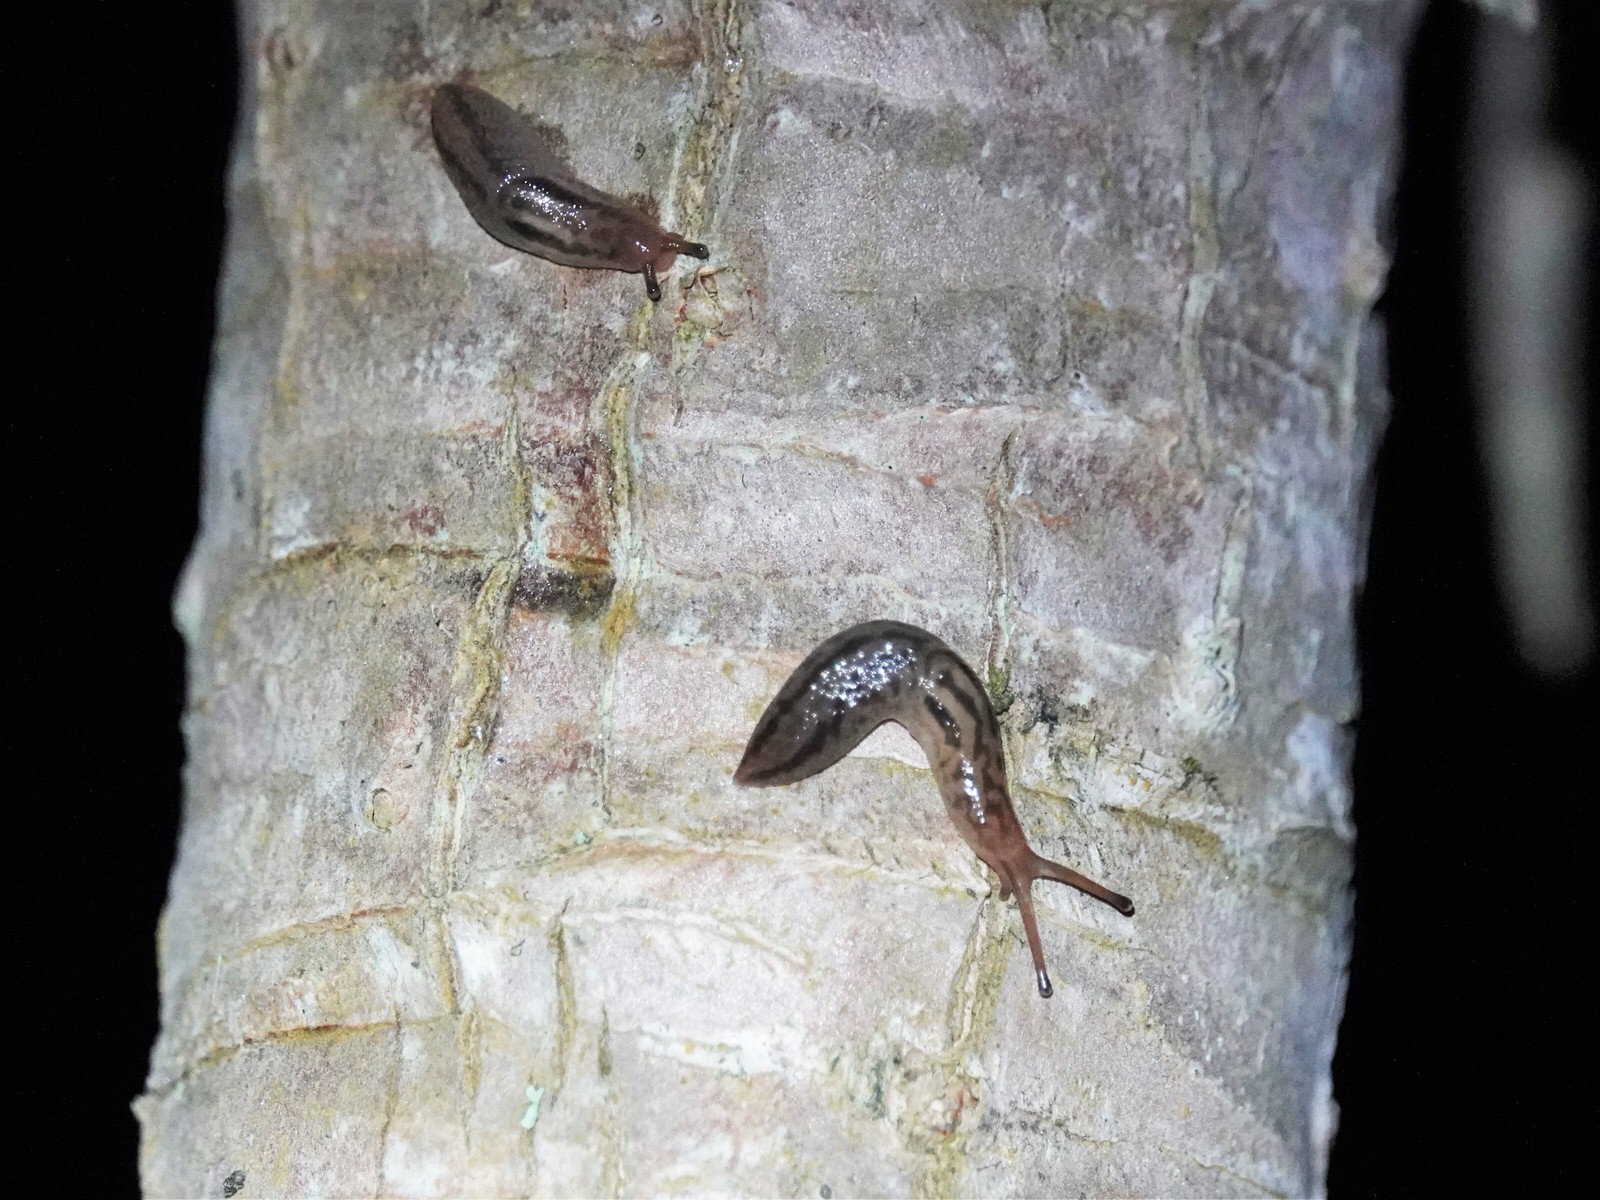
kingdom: Animalia
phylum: Mollusca
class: Gastropoda
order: Stylommatophora
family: Limacidae
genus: Ambigolimax
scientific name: Ambigolimax
